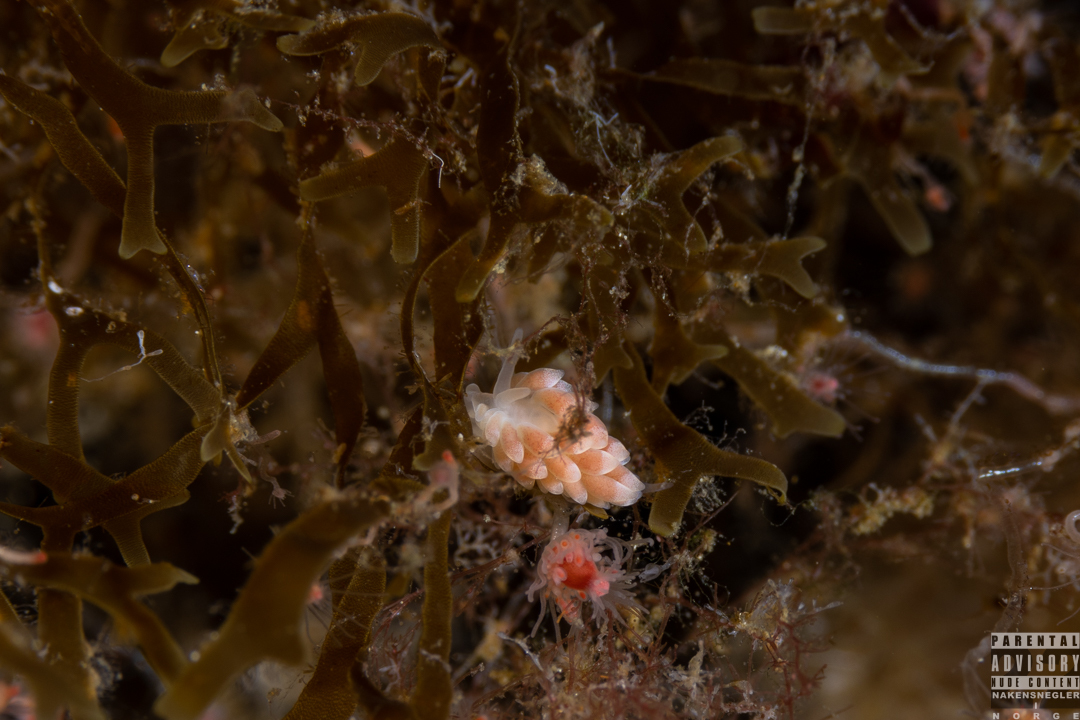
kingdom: Animalia
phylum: Mollusca
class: Gastropoda
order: Nudibranchia
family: Trinchesiidae
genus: Catriona
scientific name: Catriona aurantia
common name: Corange-tip cuthona
